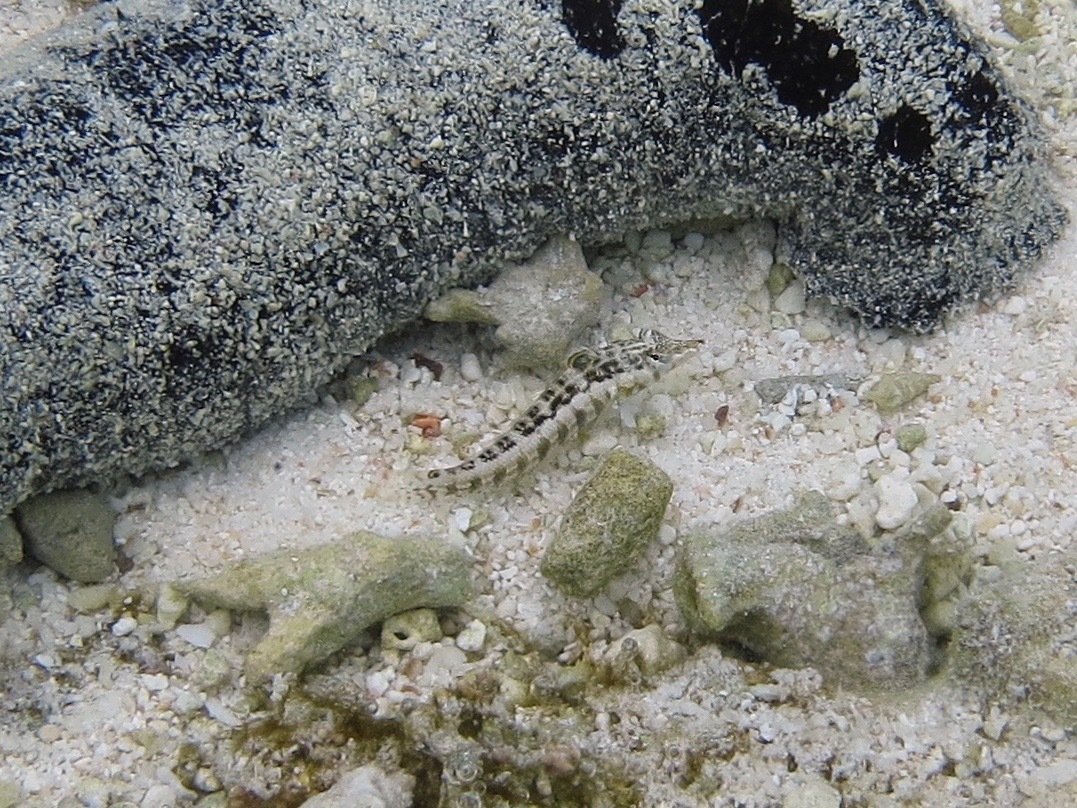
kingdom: Animalia
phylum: Chordata
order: Perciformes
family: Pinguipedidae
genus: Parapercis
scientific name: Parapercis australis
